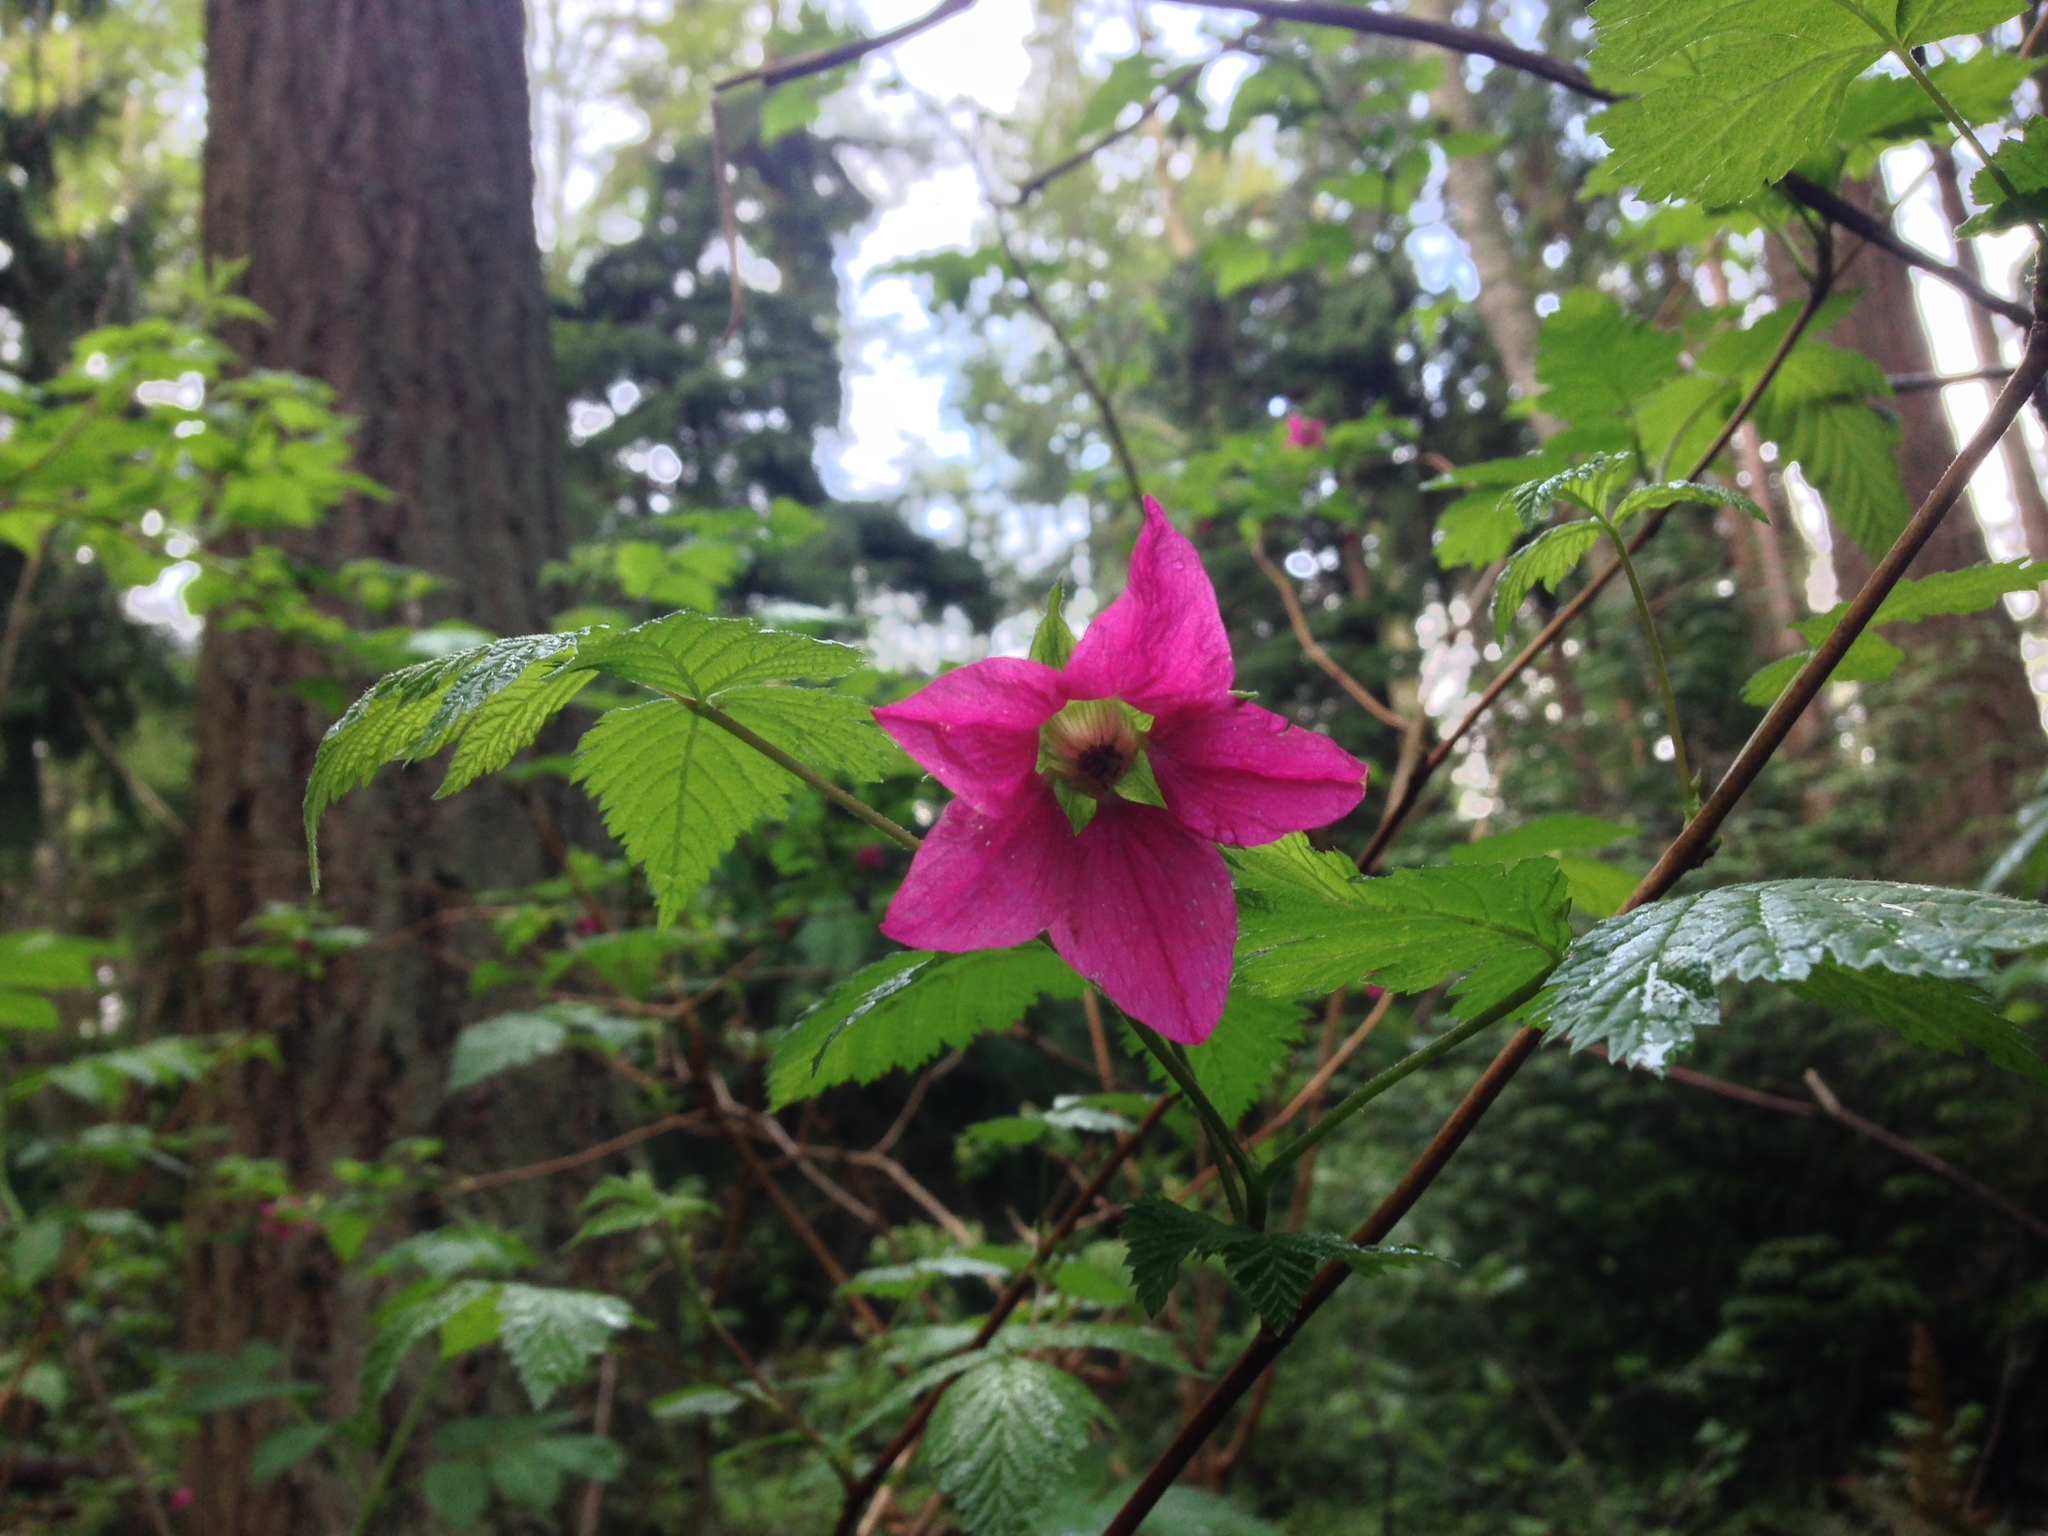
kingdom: Plantae
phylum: Tracheophyta
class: Magnoliopsida
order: Rosales
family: Rosaceae
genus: Rubus
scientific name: Rubus spectabilis
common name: Salmonberry
